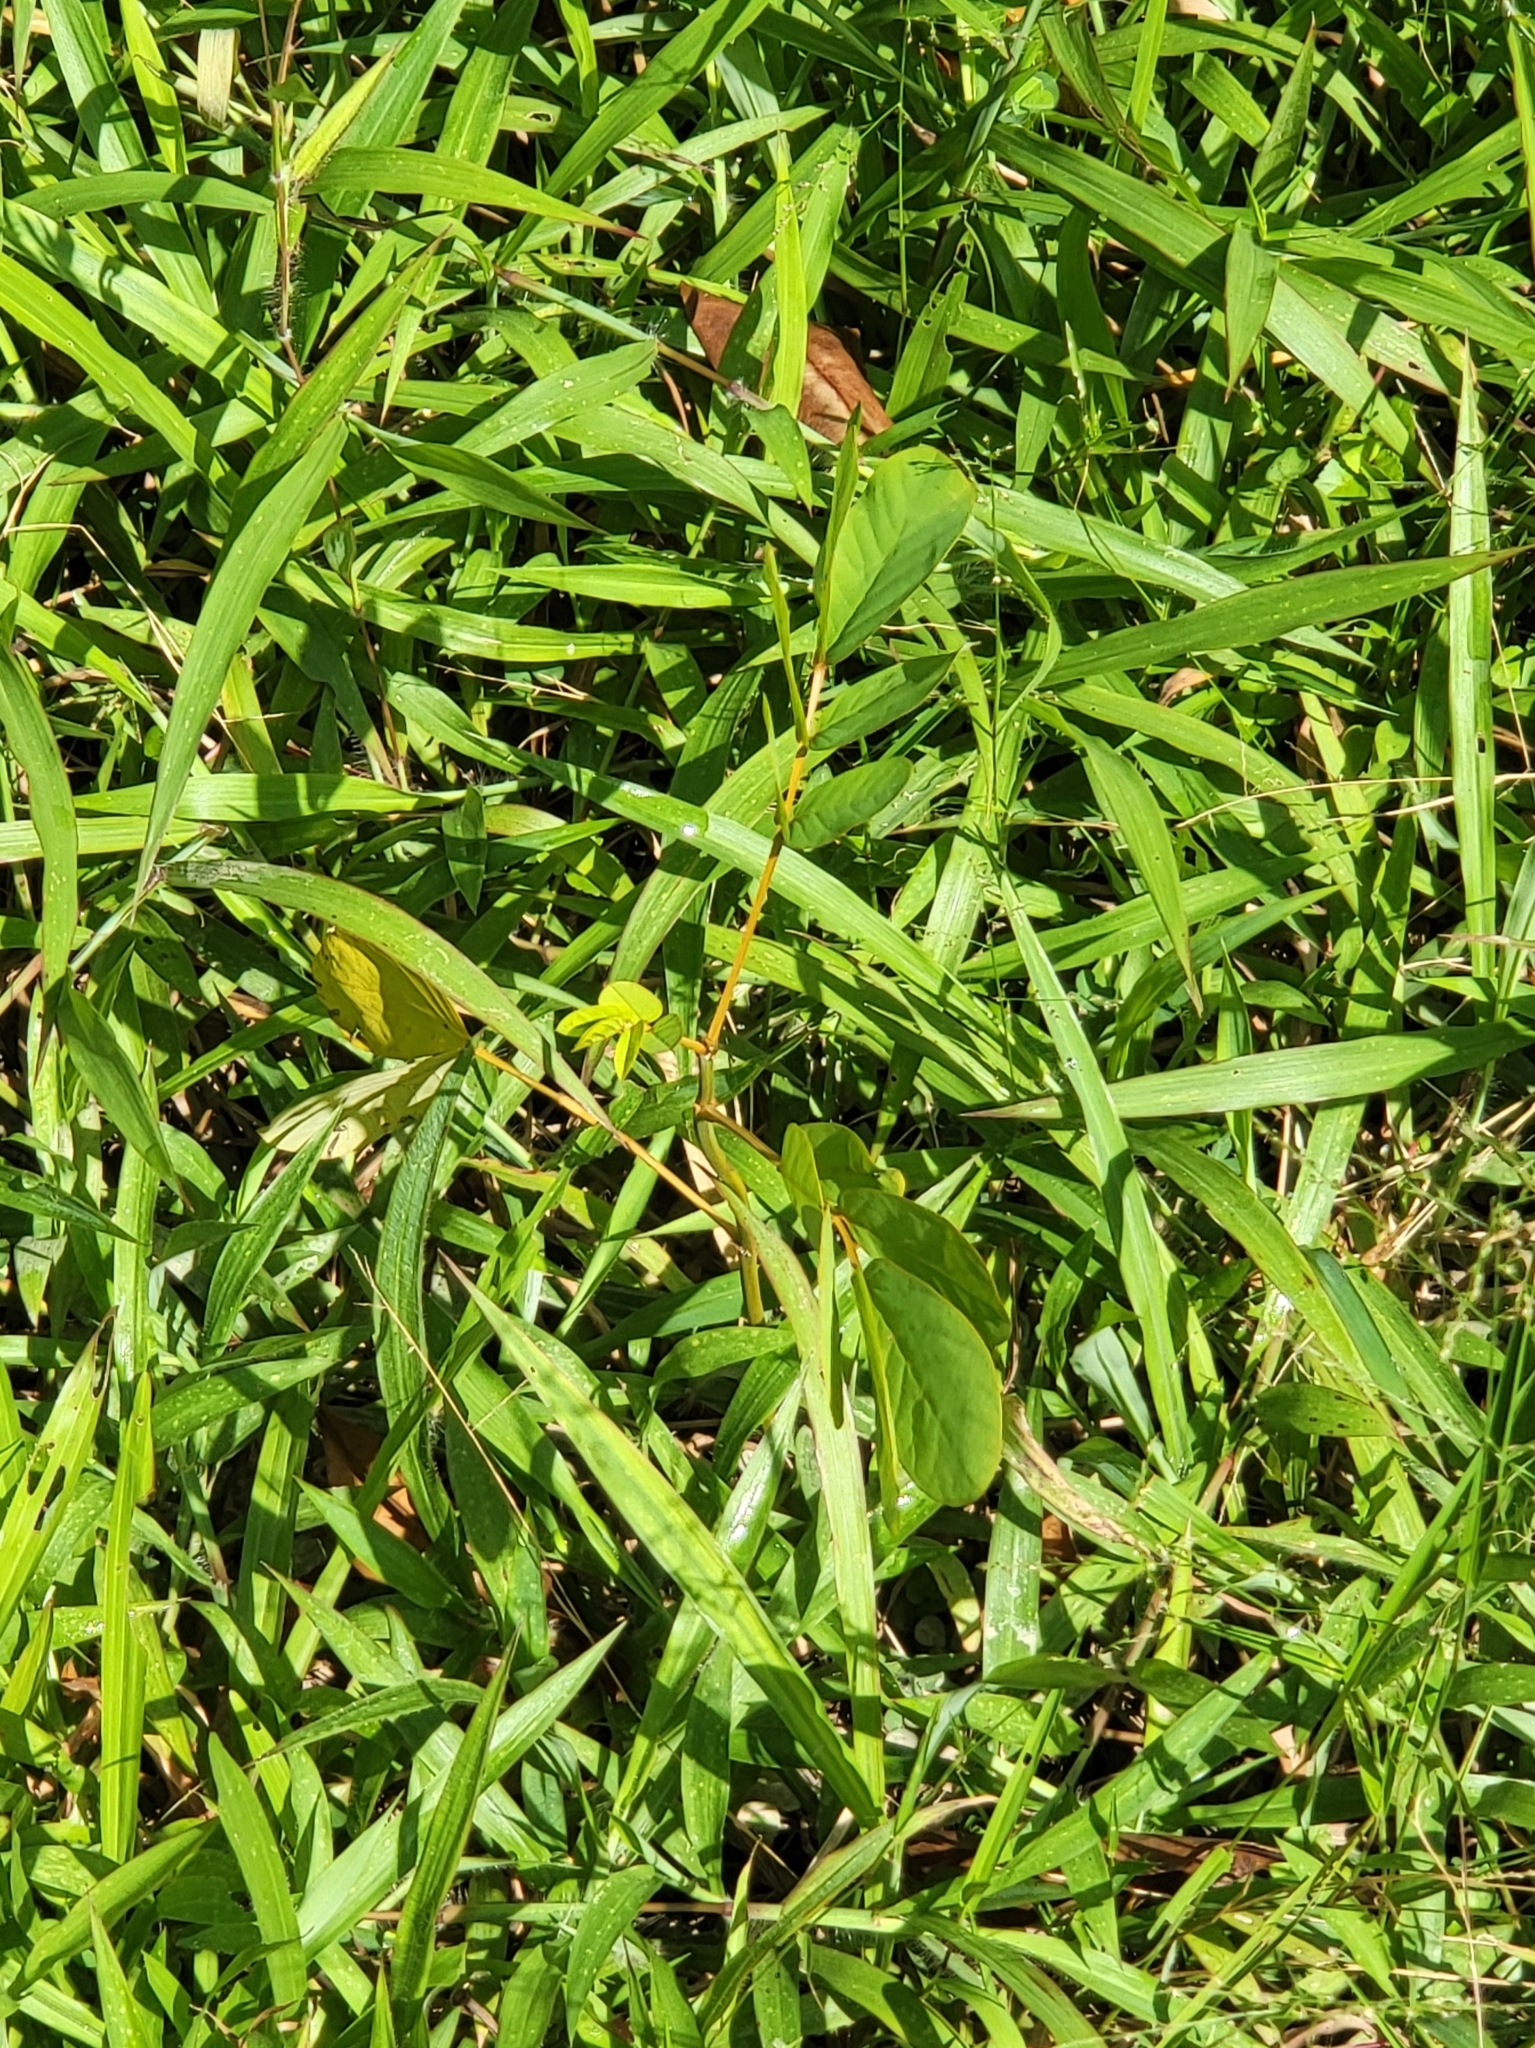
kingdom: Plantae
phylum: Tracheophyta
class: Magnoliopsida
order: Fabales
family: Fabaceae
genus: Senna
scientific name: Senna alata
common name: Emperor's candlesticks
